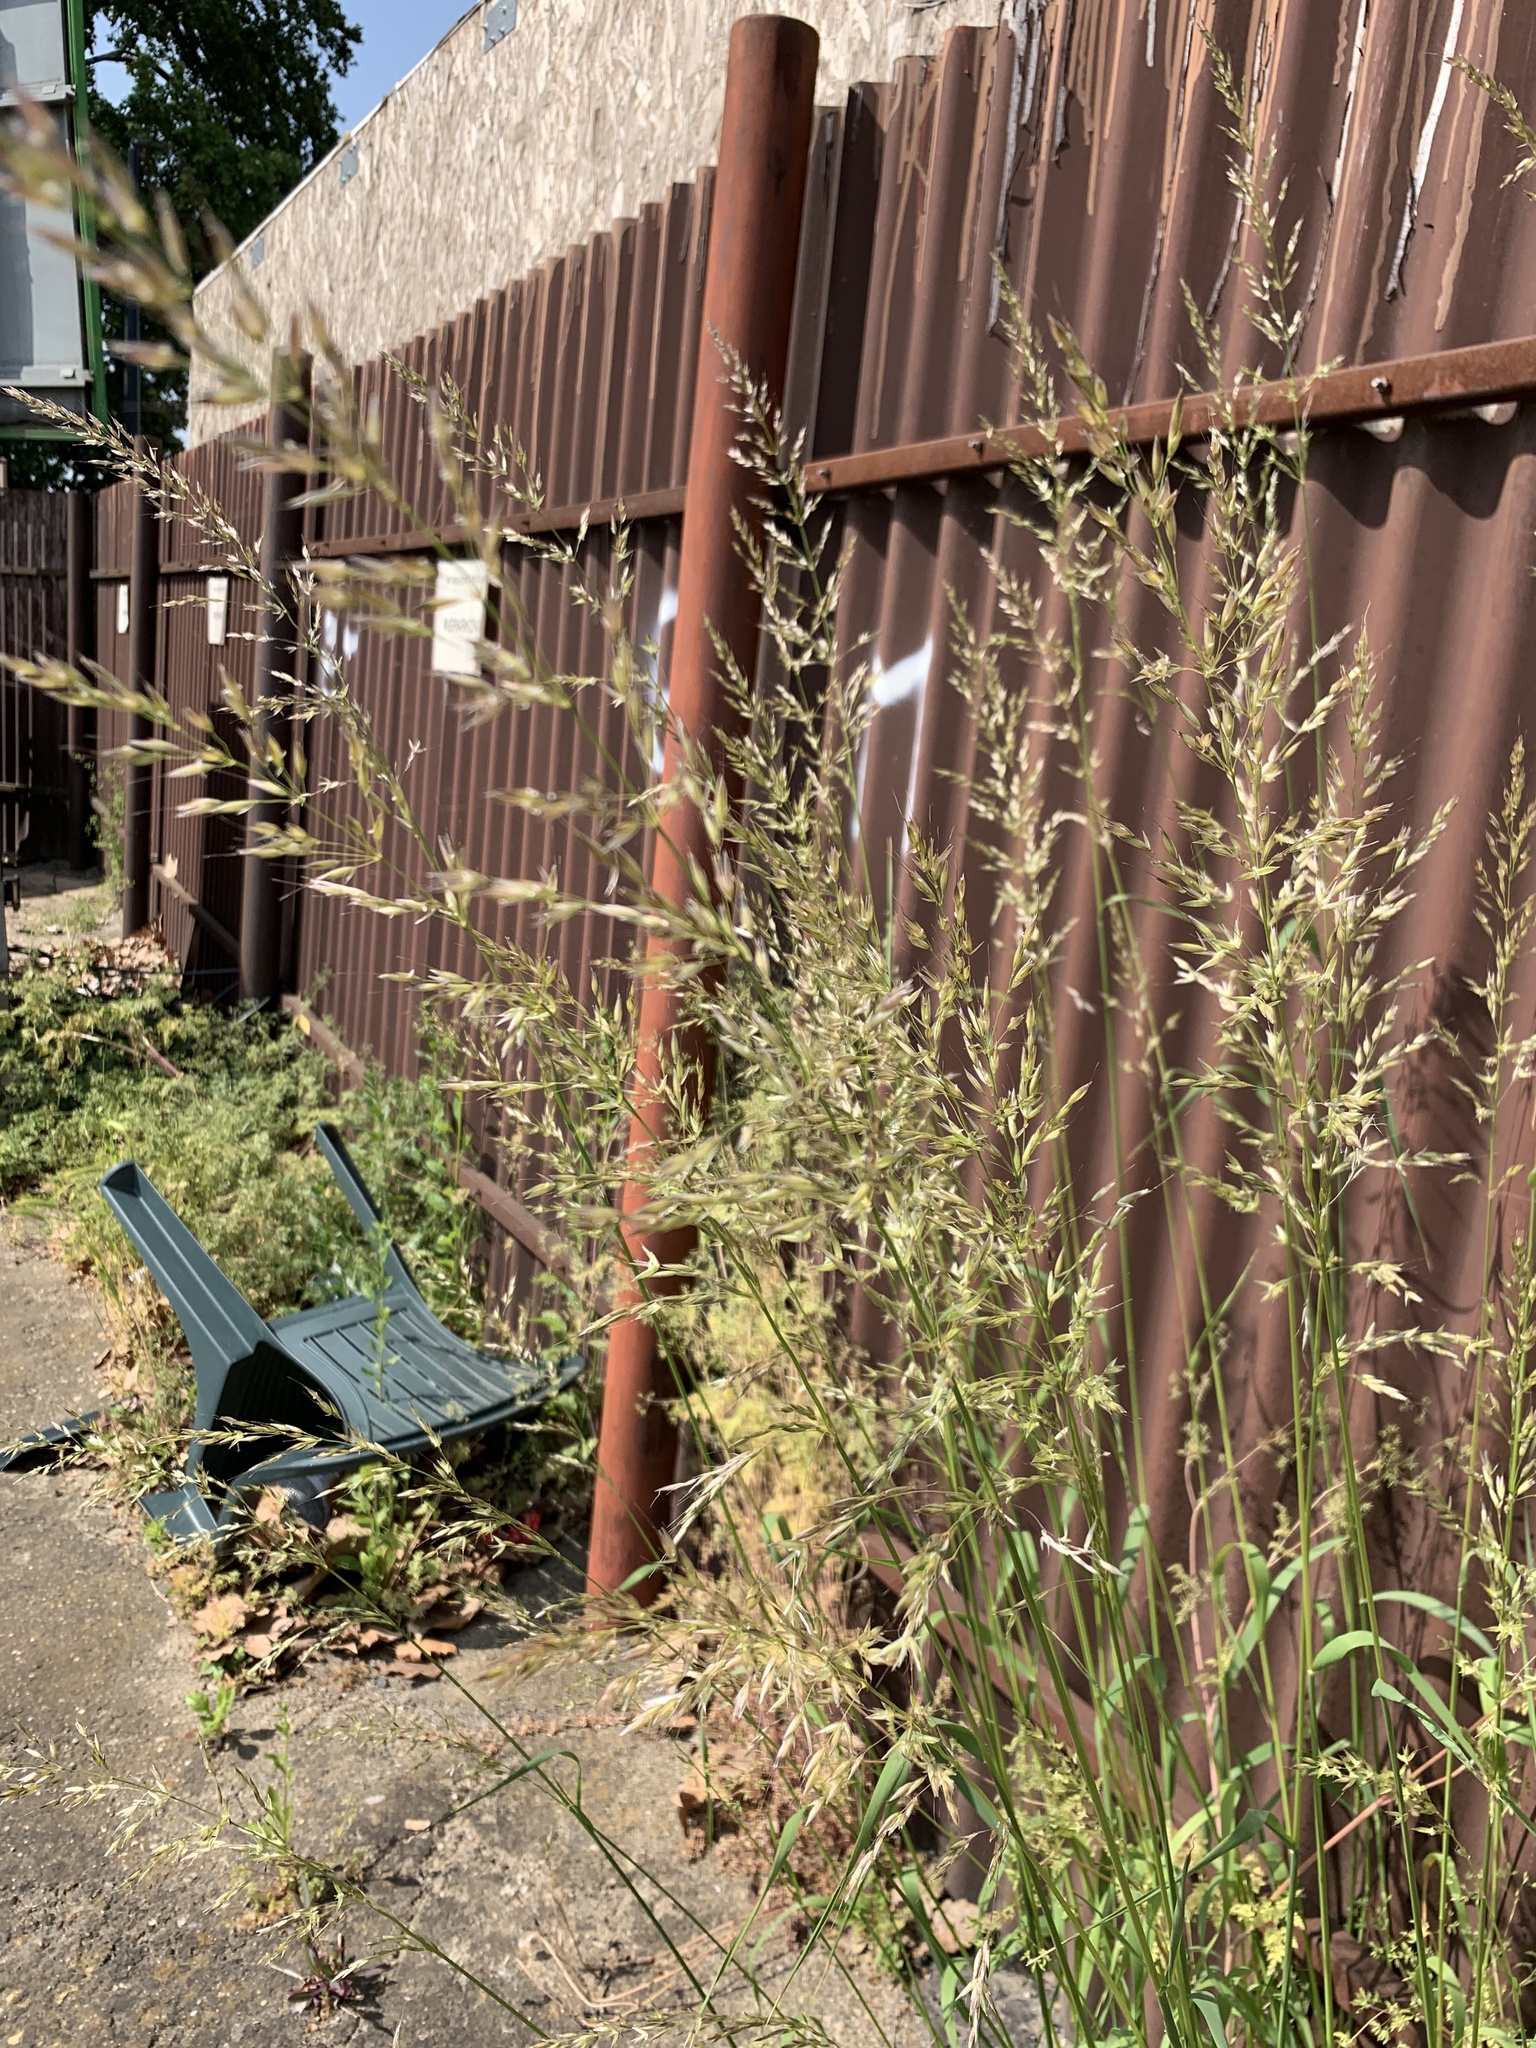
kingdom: Plantae
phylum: Tracheophyta
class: Liliopsida
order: Poales
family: Poaceae
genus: Arrhenatherum
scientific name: Arrhenatherum elatius
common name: Tall oatgrass
